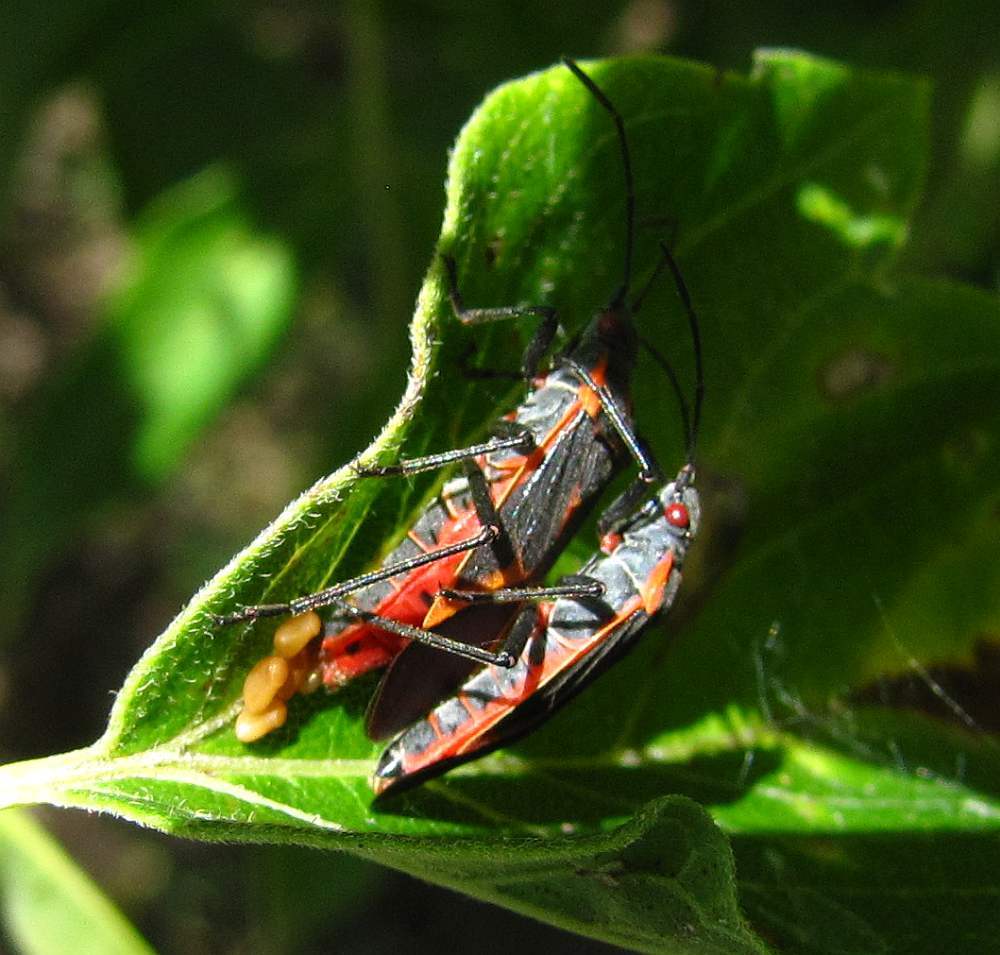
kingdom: Animalia
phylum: Arthropoda
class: Insecta
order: Hemiptera
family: Rhopalidae
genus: Boisea
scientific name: Boisea trivittata
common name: Boxelder bug
